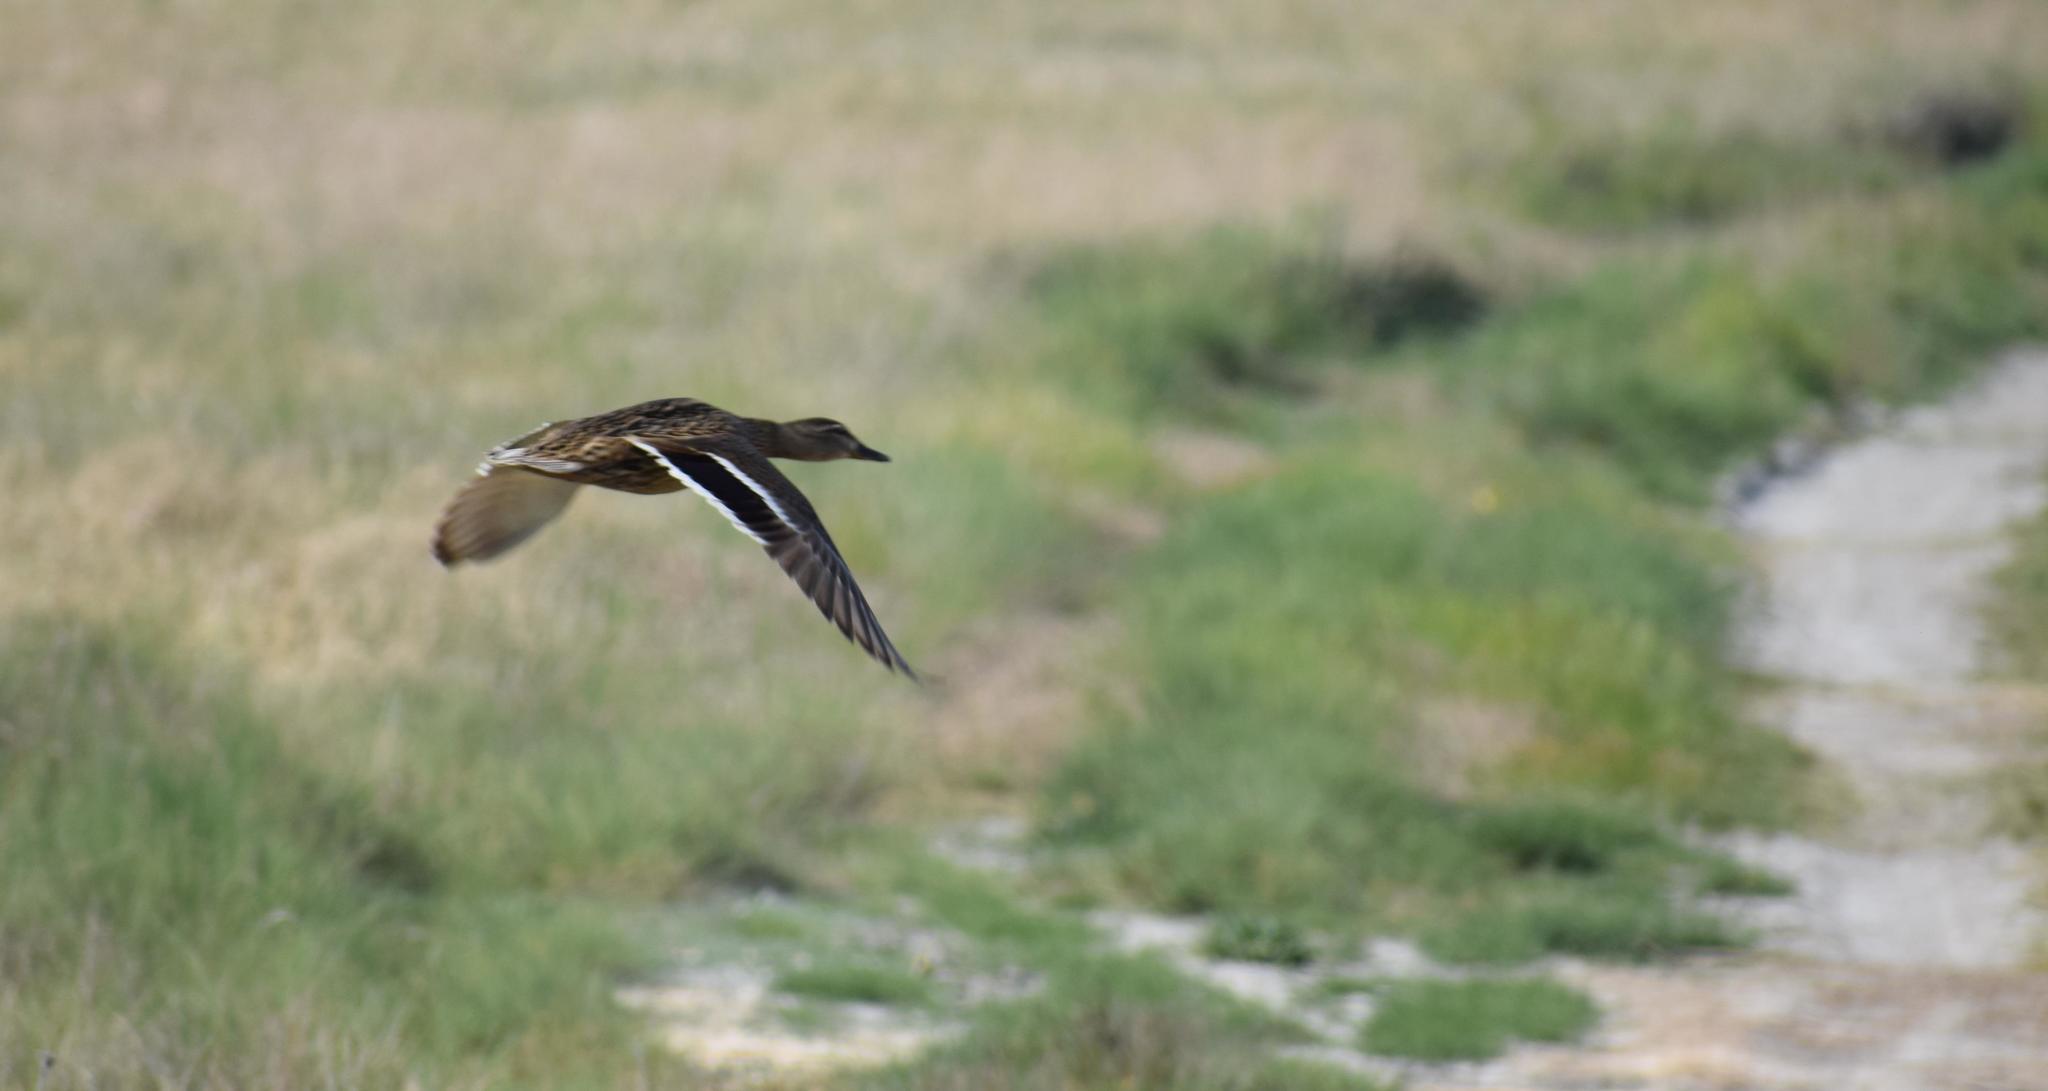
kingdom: Animalia
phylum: Chordata
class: Aves
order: Anseriformes
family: Anatidae
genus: Anas
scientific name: Anas platyrhynchos
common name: Mallard
